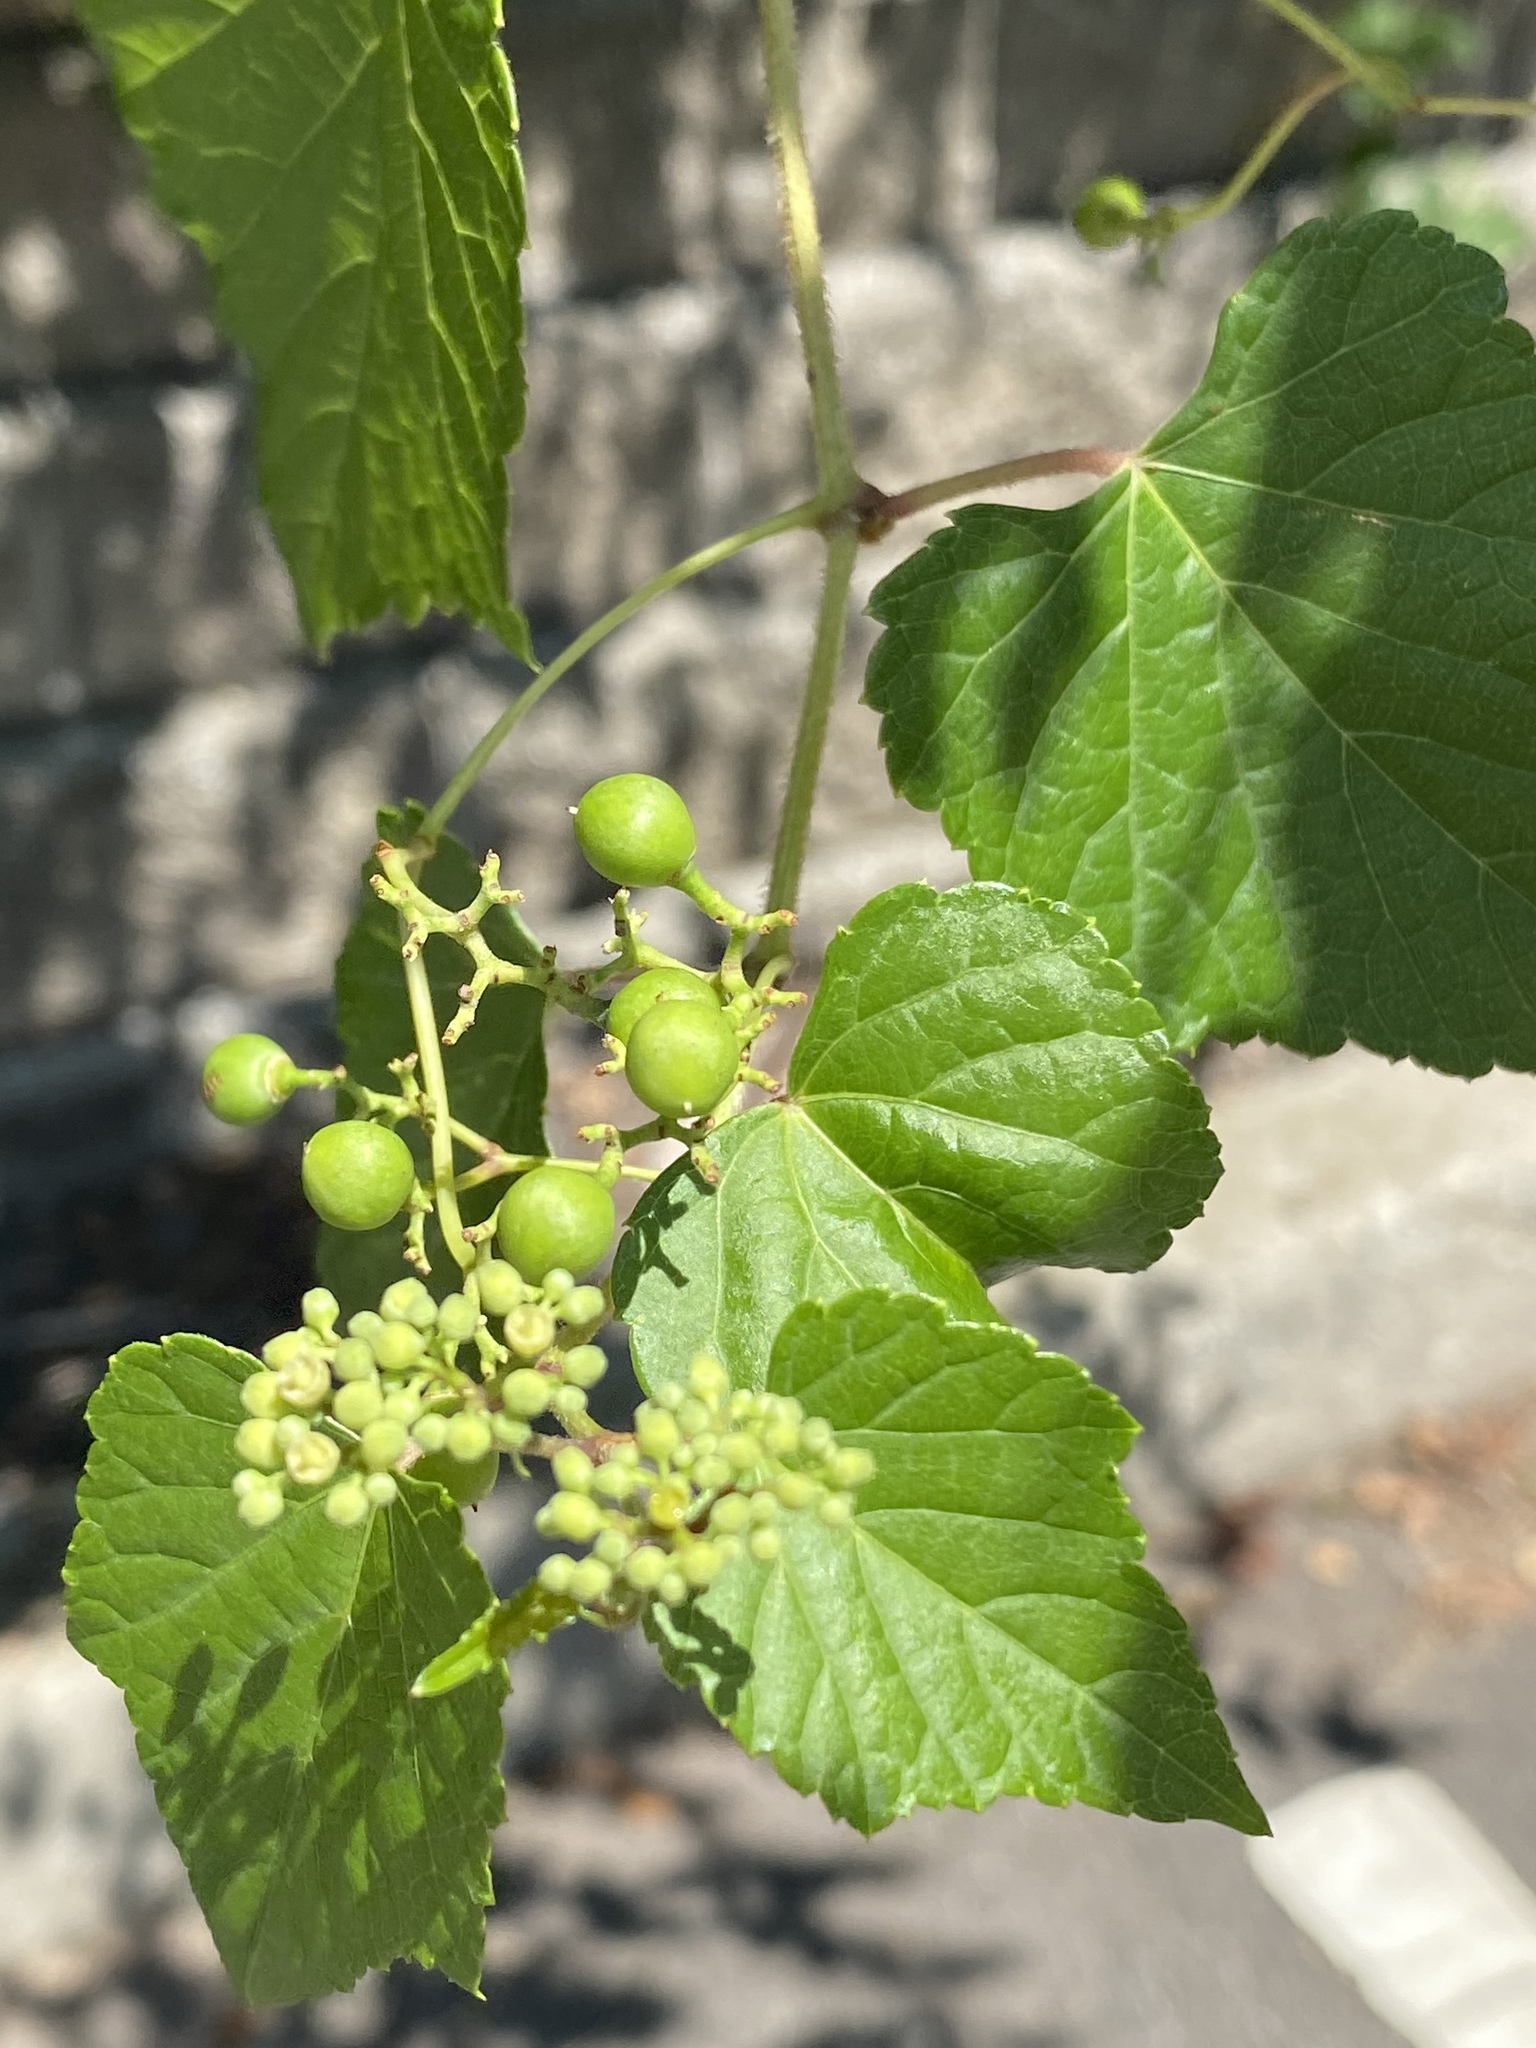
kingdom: Plantae
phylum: Tracheophyta
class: Magnoliopsida
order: Vitales
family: Vitaceae
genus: Ampelopsis
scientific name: Ampelopsis glandulosa
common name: Amur peppervine
